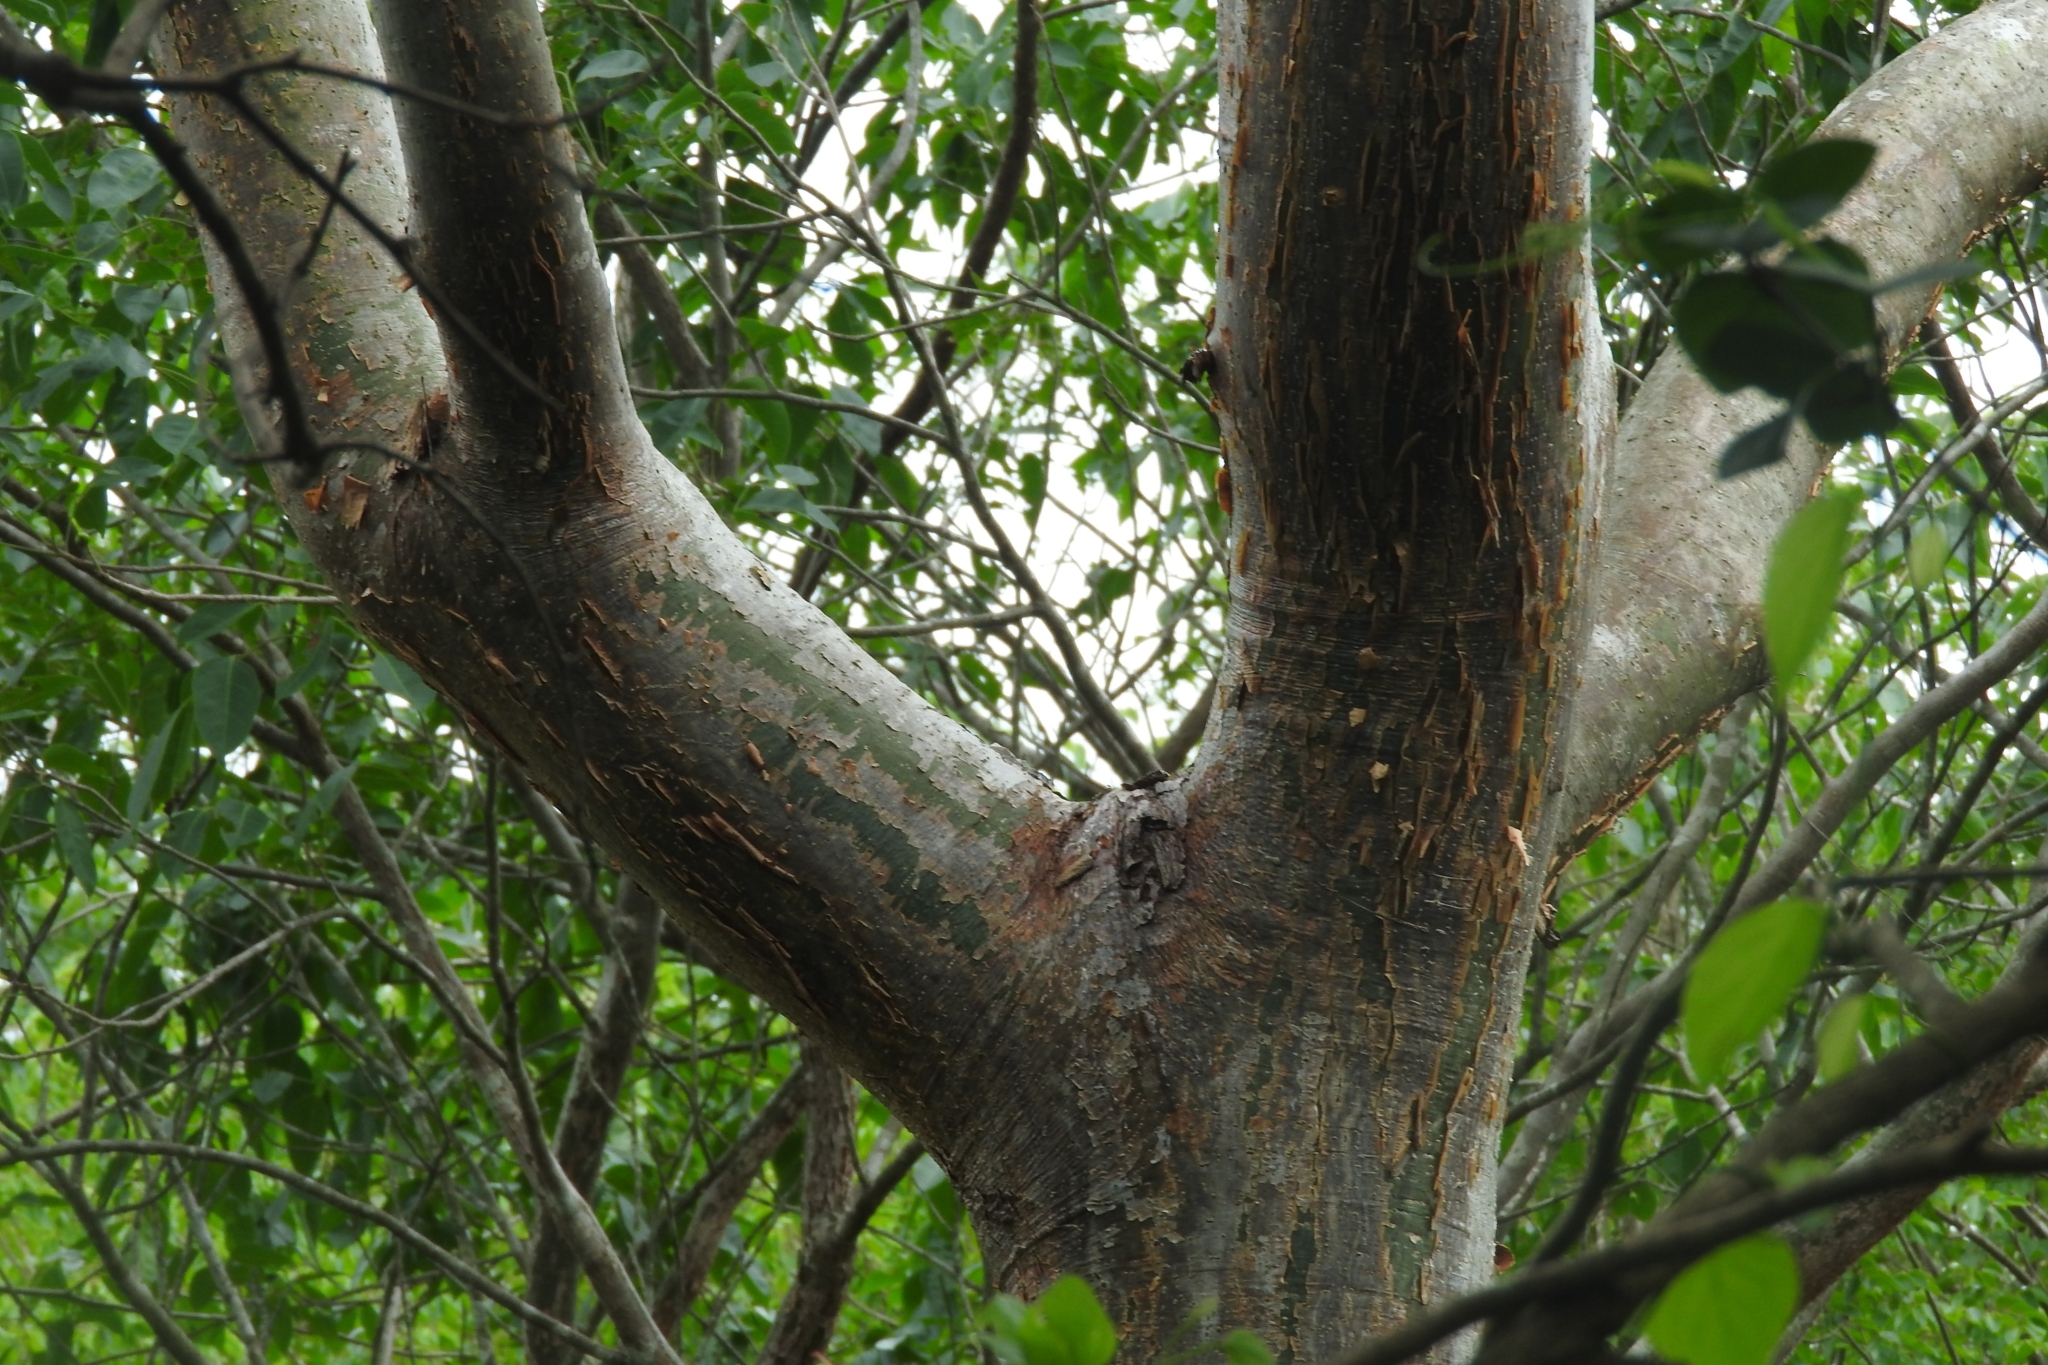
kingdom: Plantae
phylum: Tracheophyta
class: Magnoliopsida
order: Sapindales
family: Burseraceae
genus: Bursera
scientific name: Bursera simaruba
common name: Turpentine tree
